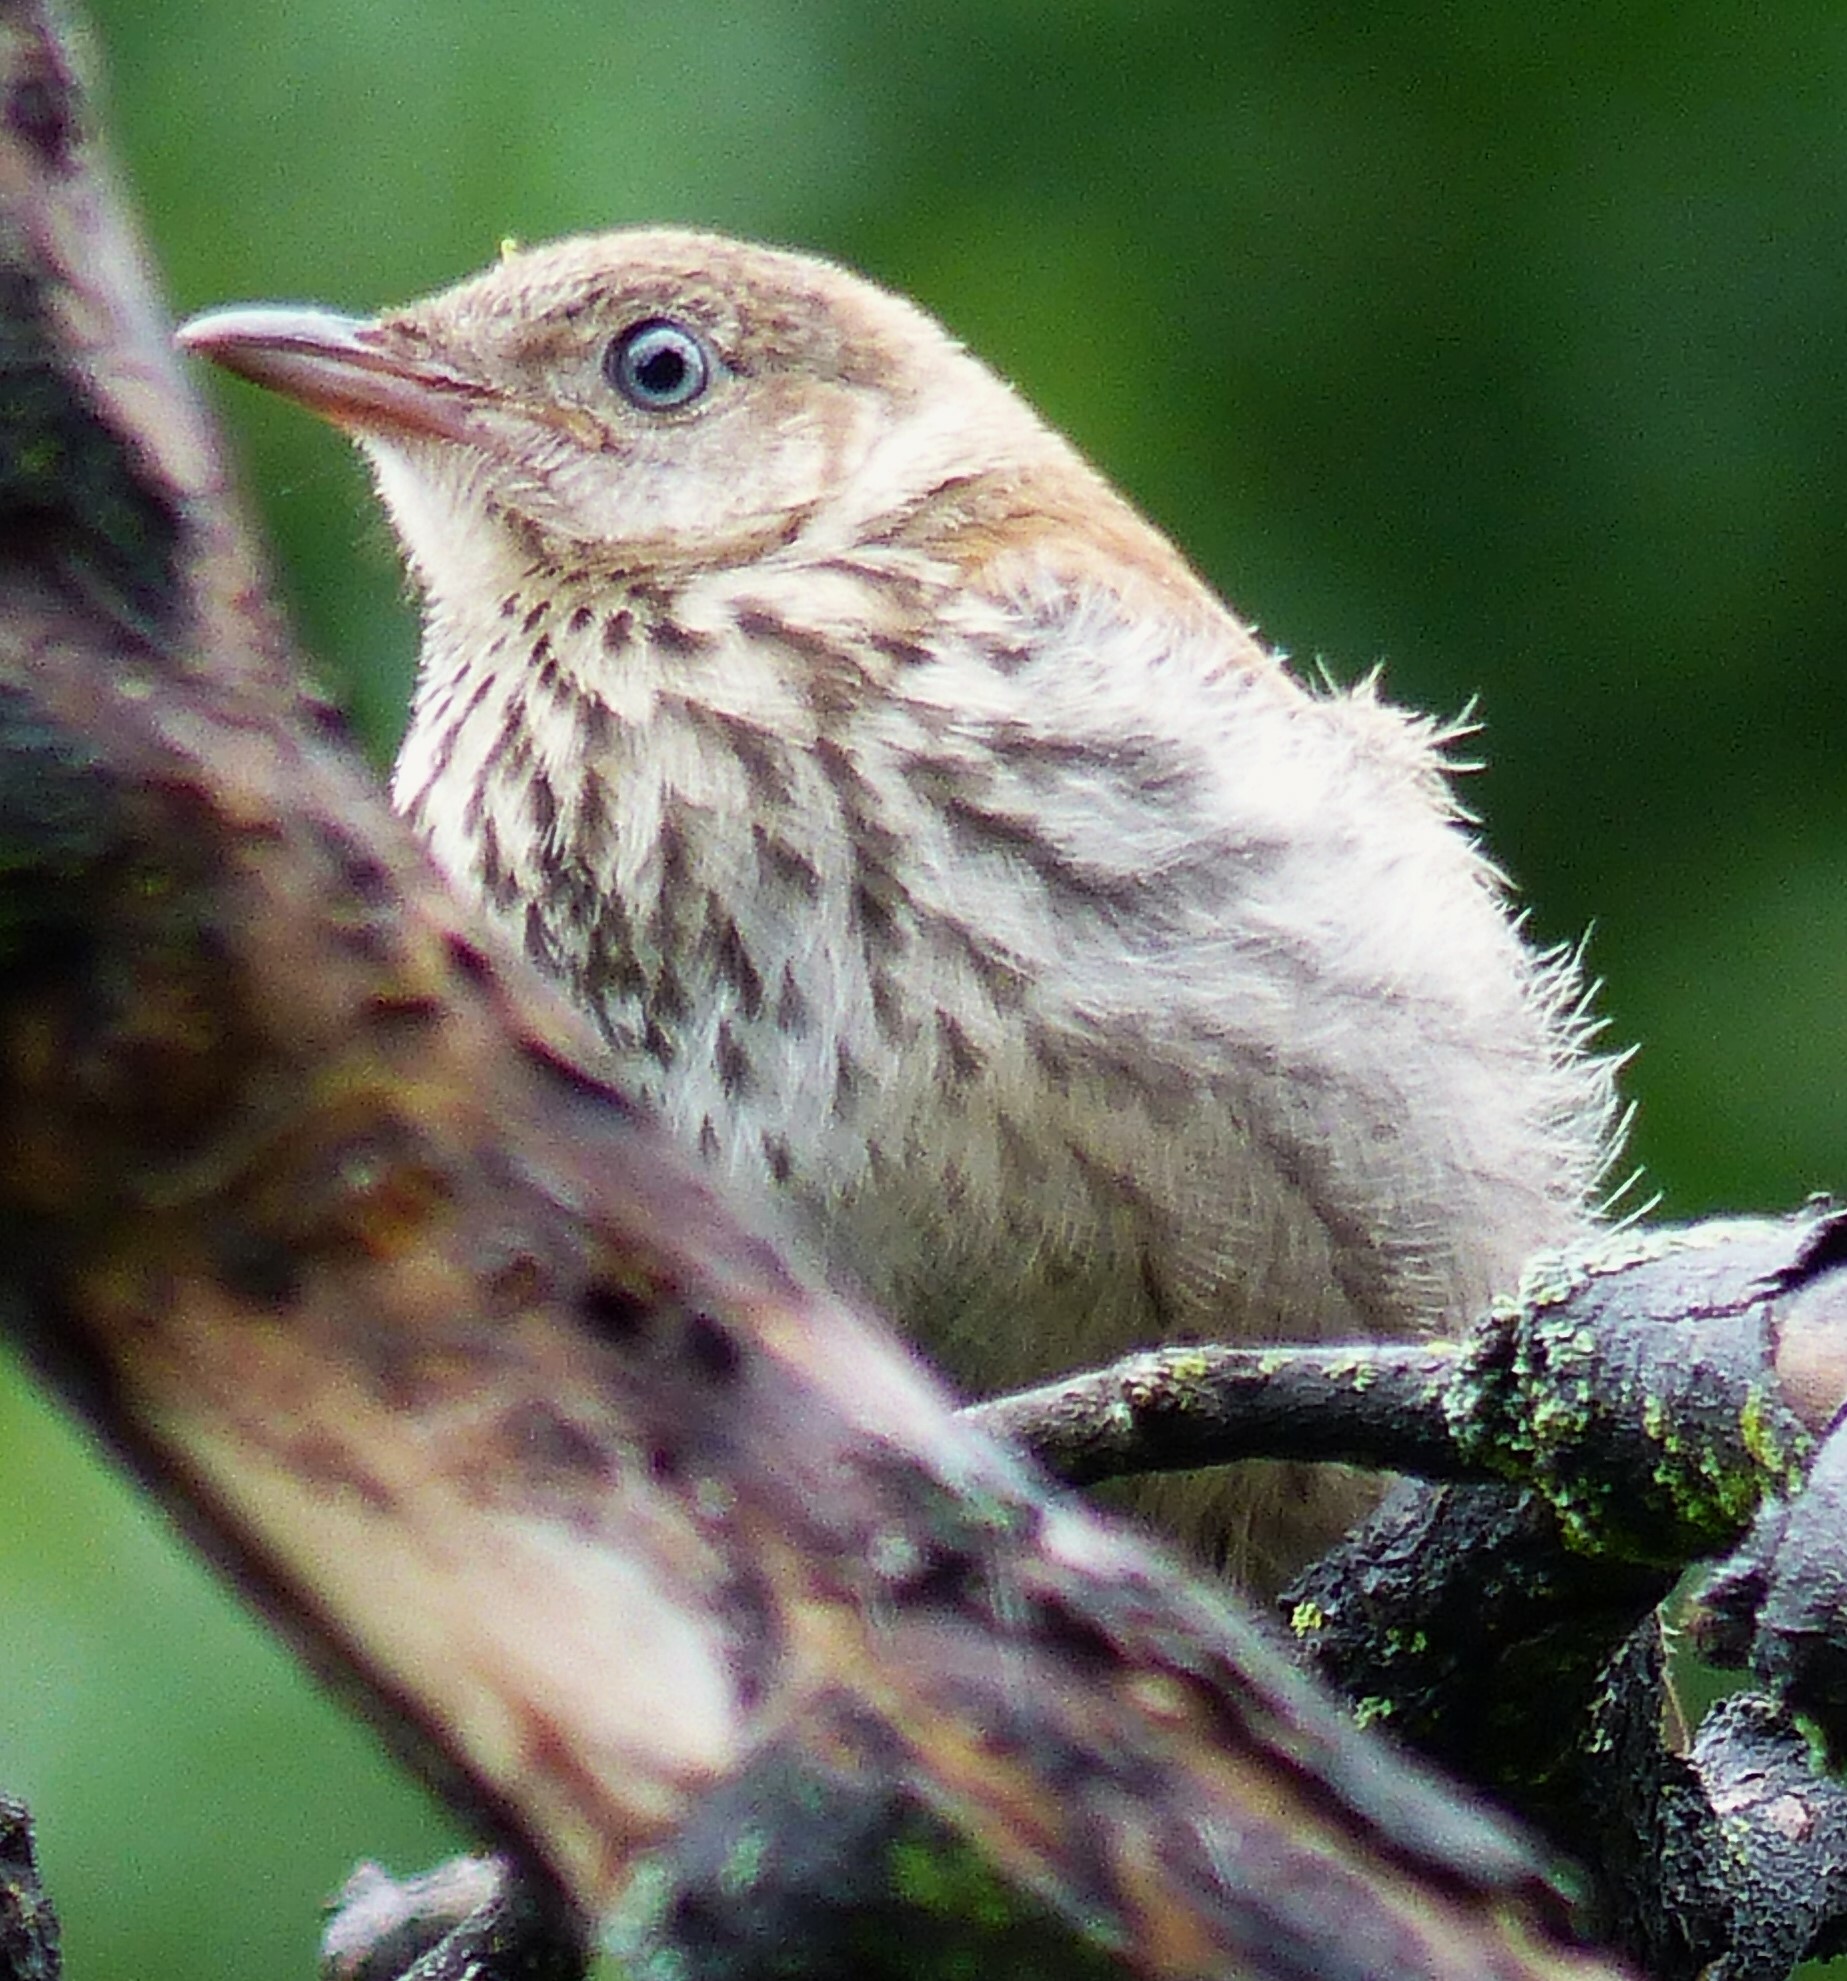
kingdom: Animalia
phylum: Chordata
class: Aves
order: Passeriformes
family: Mimidae
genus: Toxostoma
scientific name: Toxostoma rufum
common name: Brown thrasher
